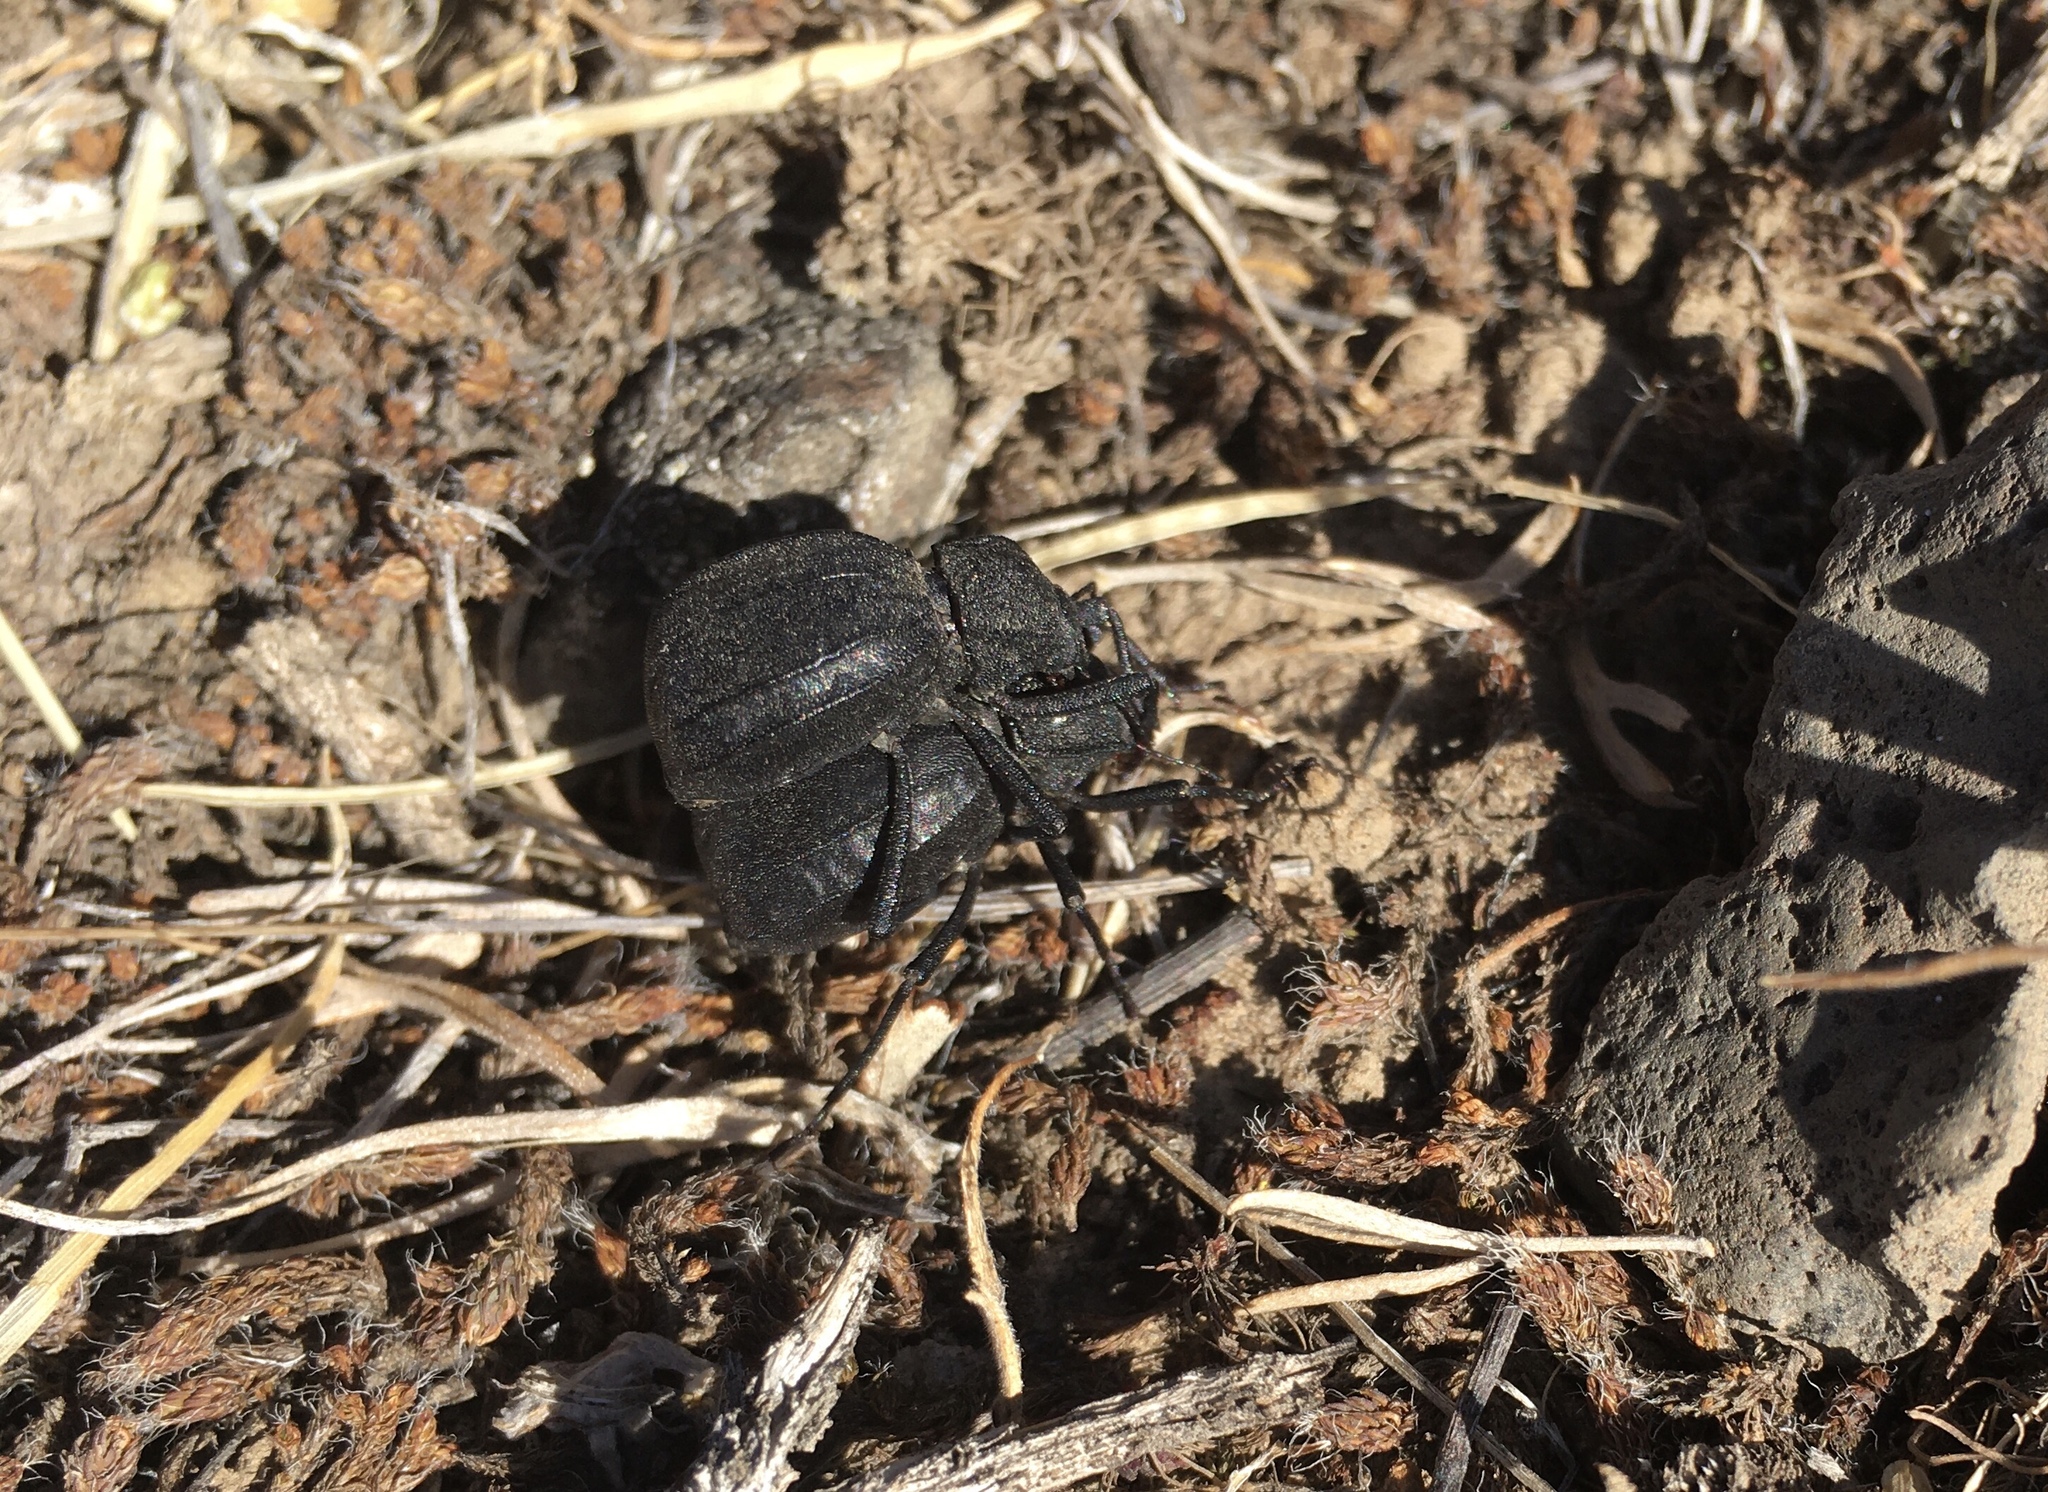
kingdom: Animalia
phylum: Arthropoda
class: Insecta
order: Coleoptera
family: Tenebrionidae
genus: Philolithus
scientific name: Philolithus densicollis
